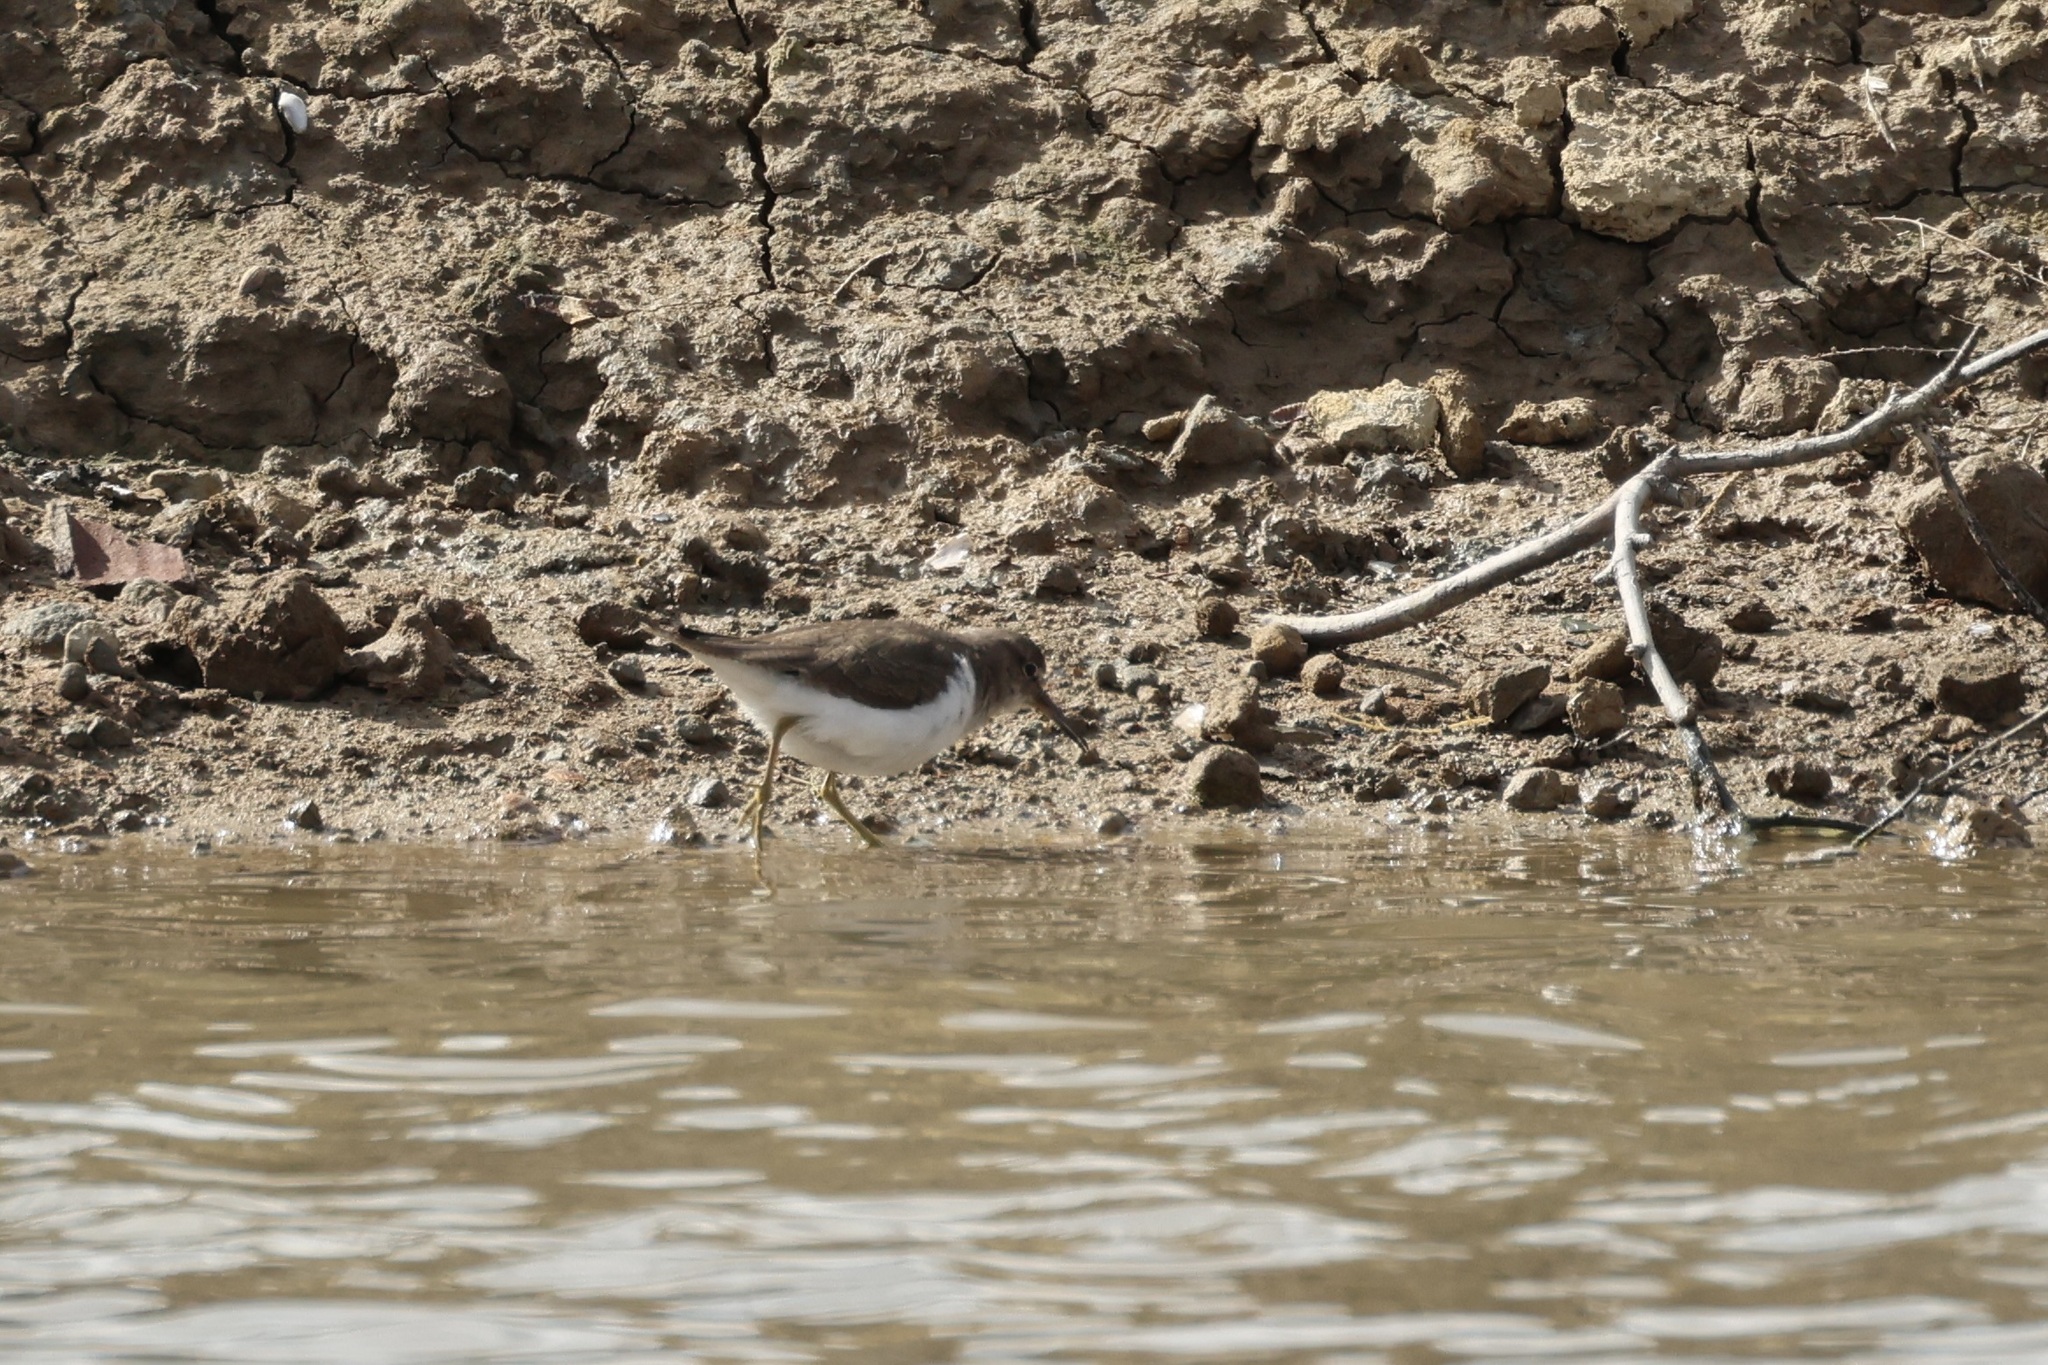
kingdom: Animalia
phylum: Chordata
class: Aves
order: Charadriiformes
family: Scolopacidae
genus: Actitis
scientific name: Actitis hypoleucos
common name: Common sandpiper
